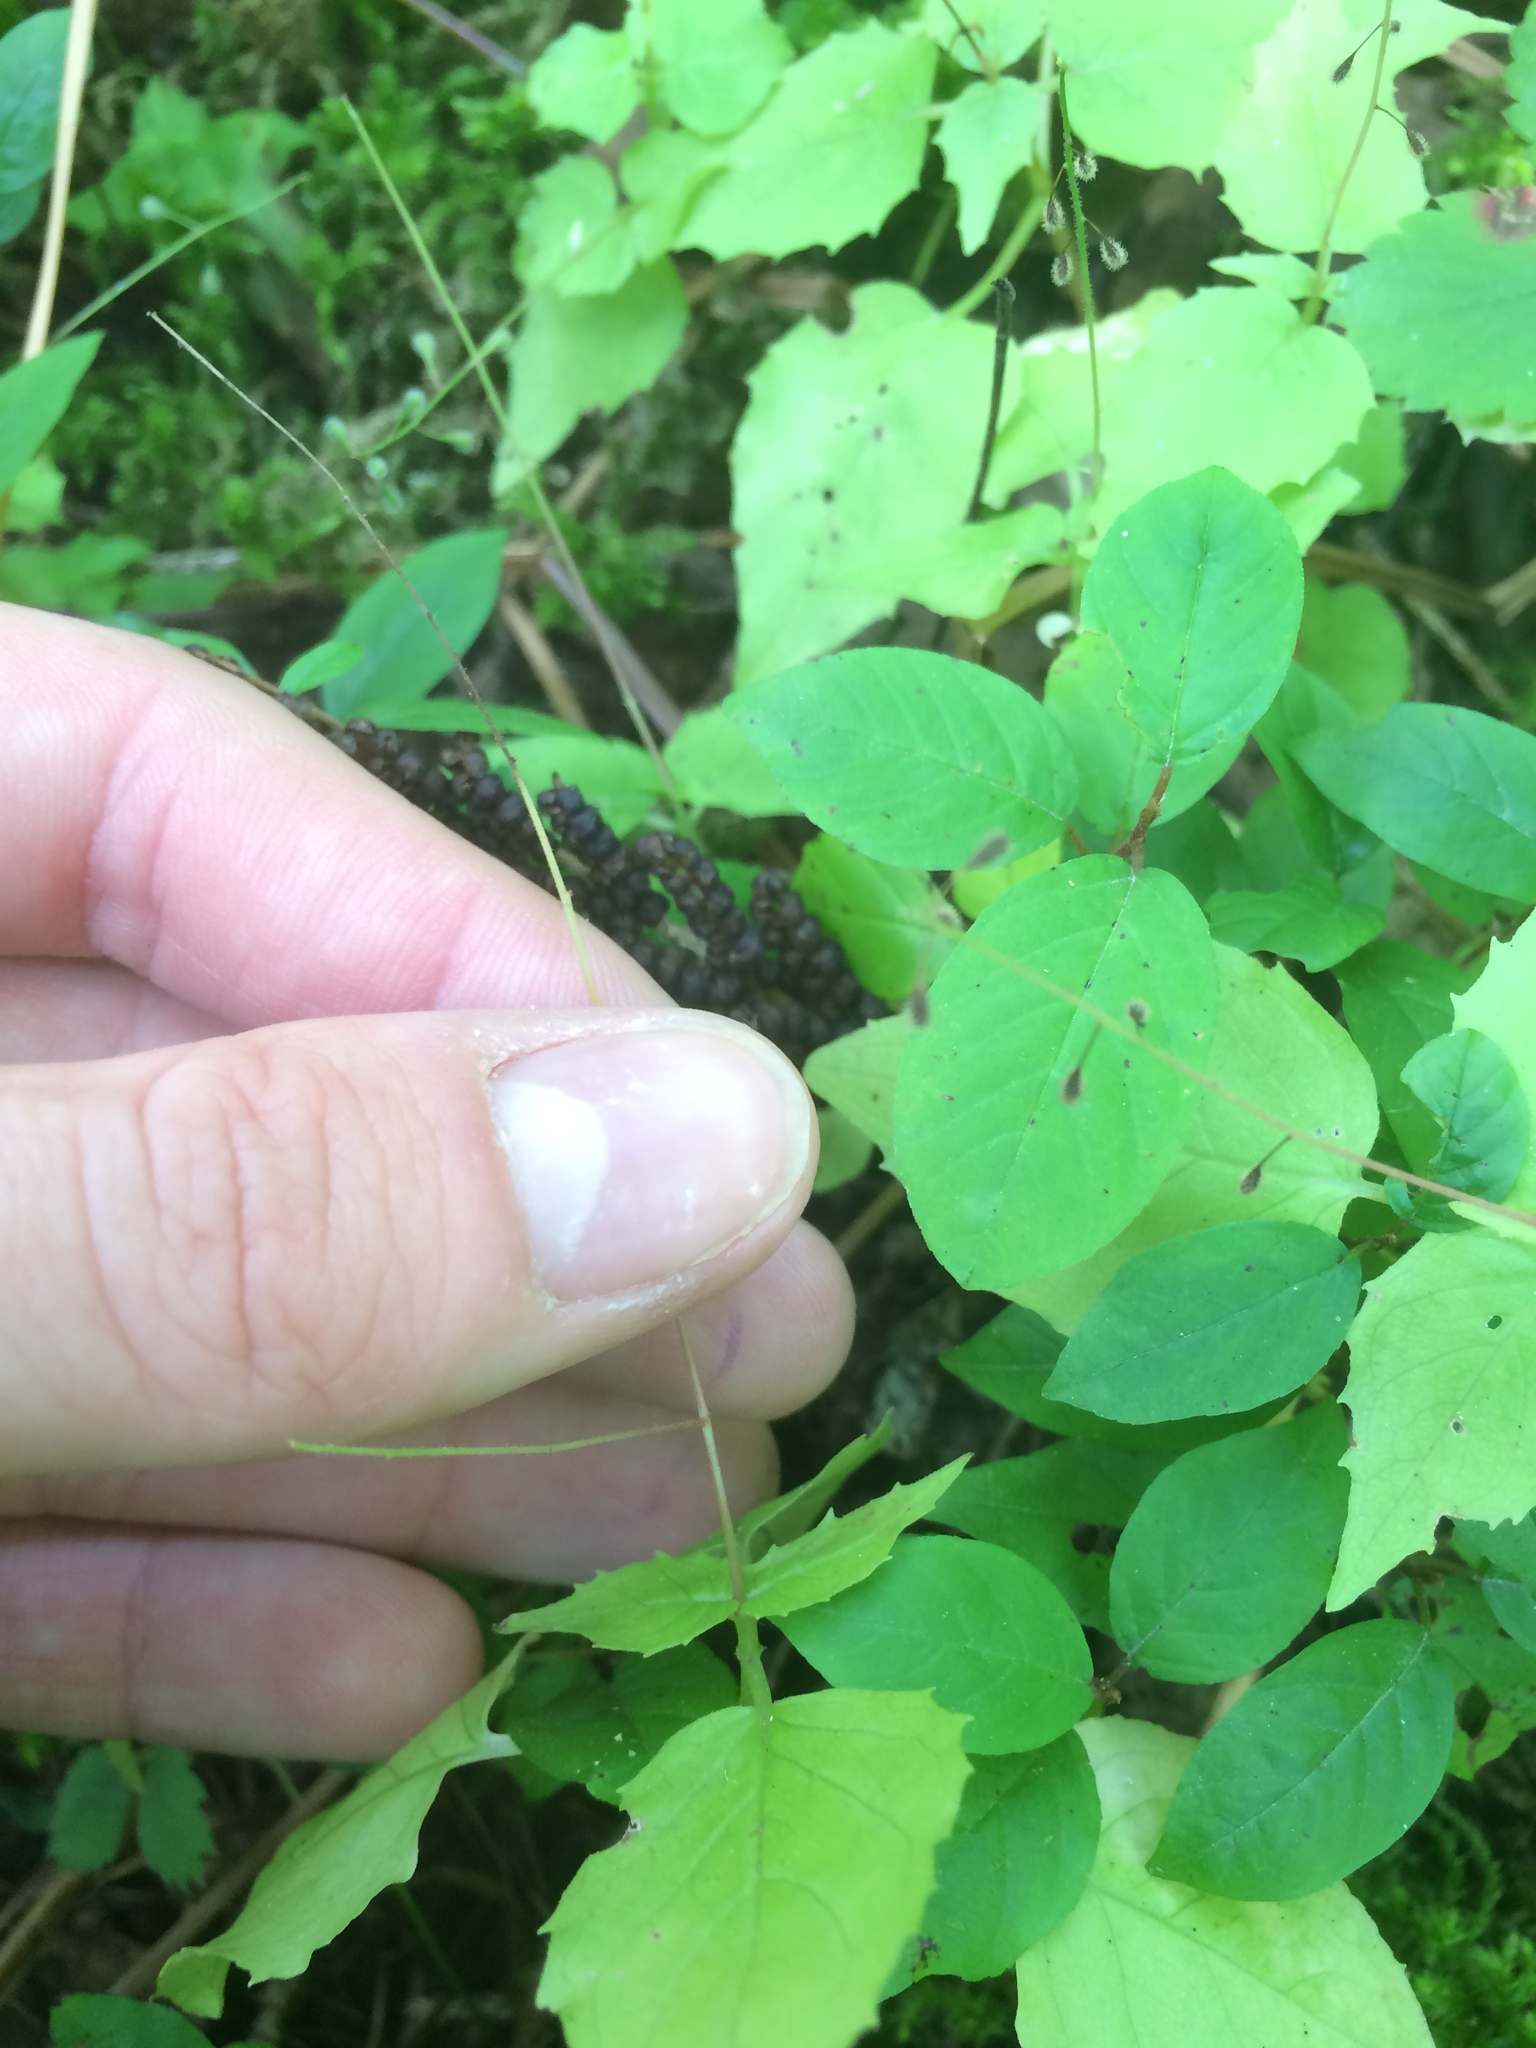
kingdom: Plantae
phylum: Tracheophyta
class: Magnoliopsida
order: Myrtales
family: Onagraceae
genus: Circaea
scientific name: Circaea alpina
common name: Alpine enchanter's-nightshade
